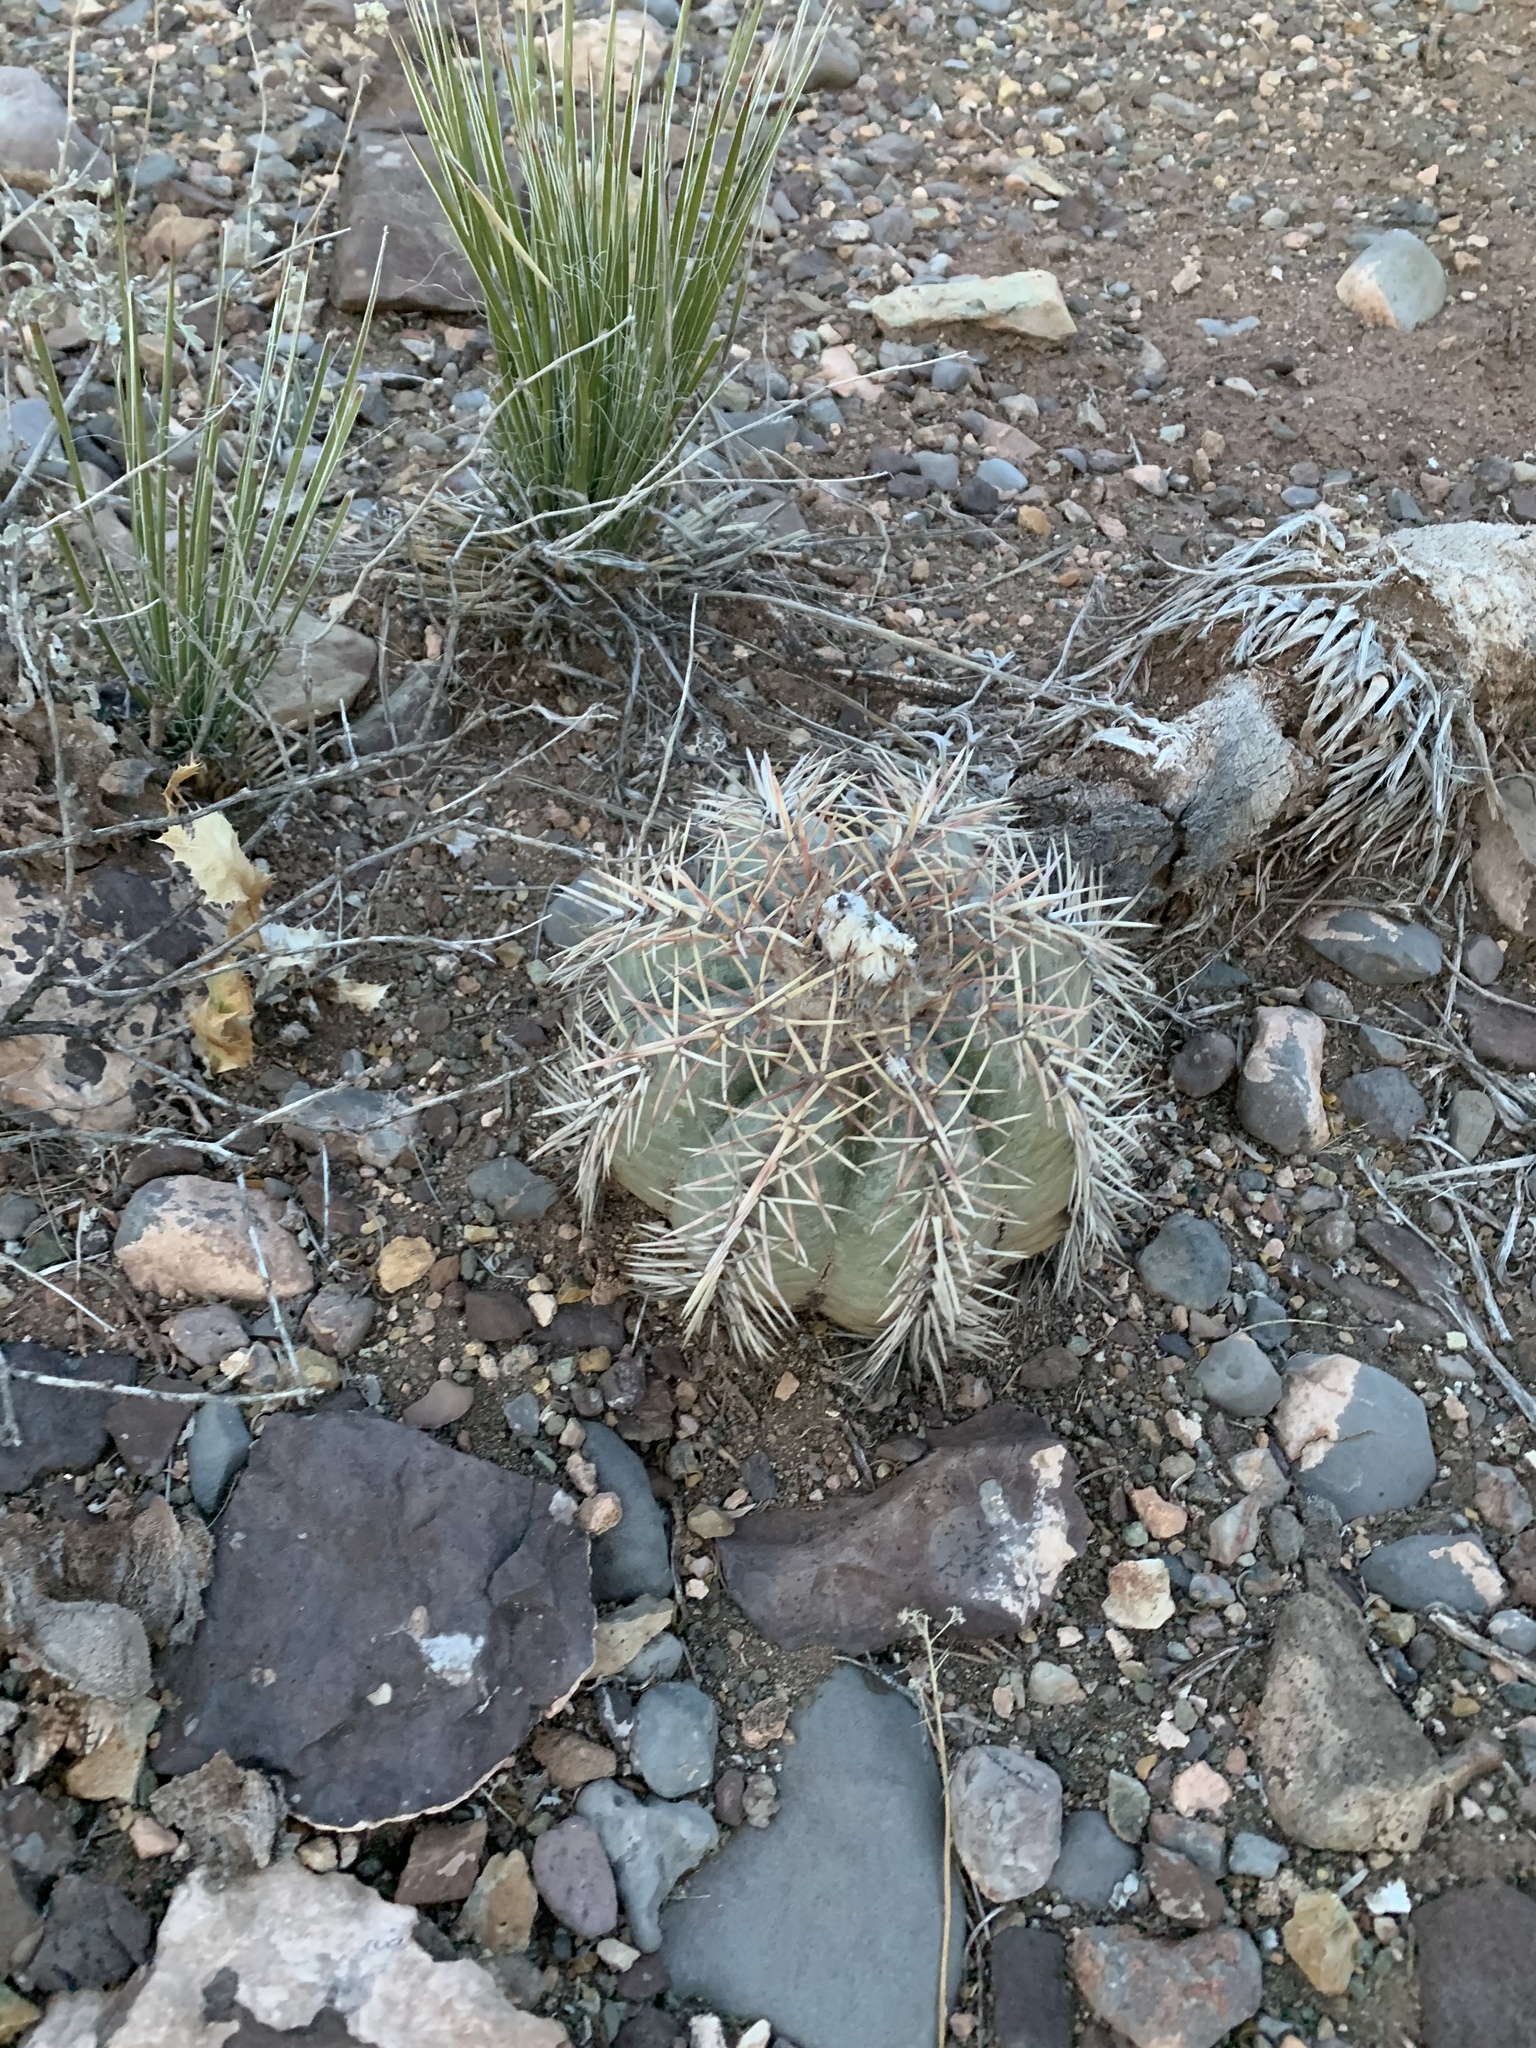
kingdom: Plantae
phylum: Tracheophyta
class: Magnoliopsida
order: Caryophyllales
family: Cactaceae
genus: Echinocactus
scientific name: Echinocactus horizonthalonius
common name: Devilshead
